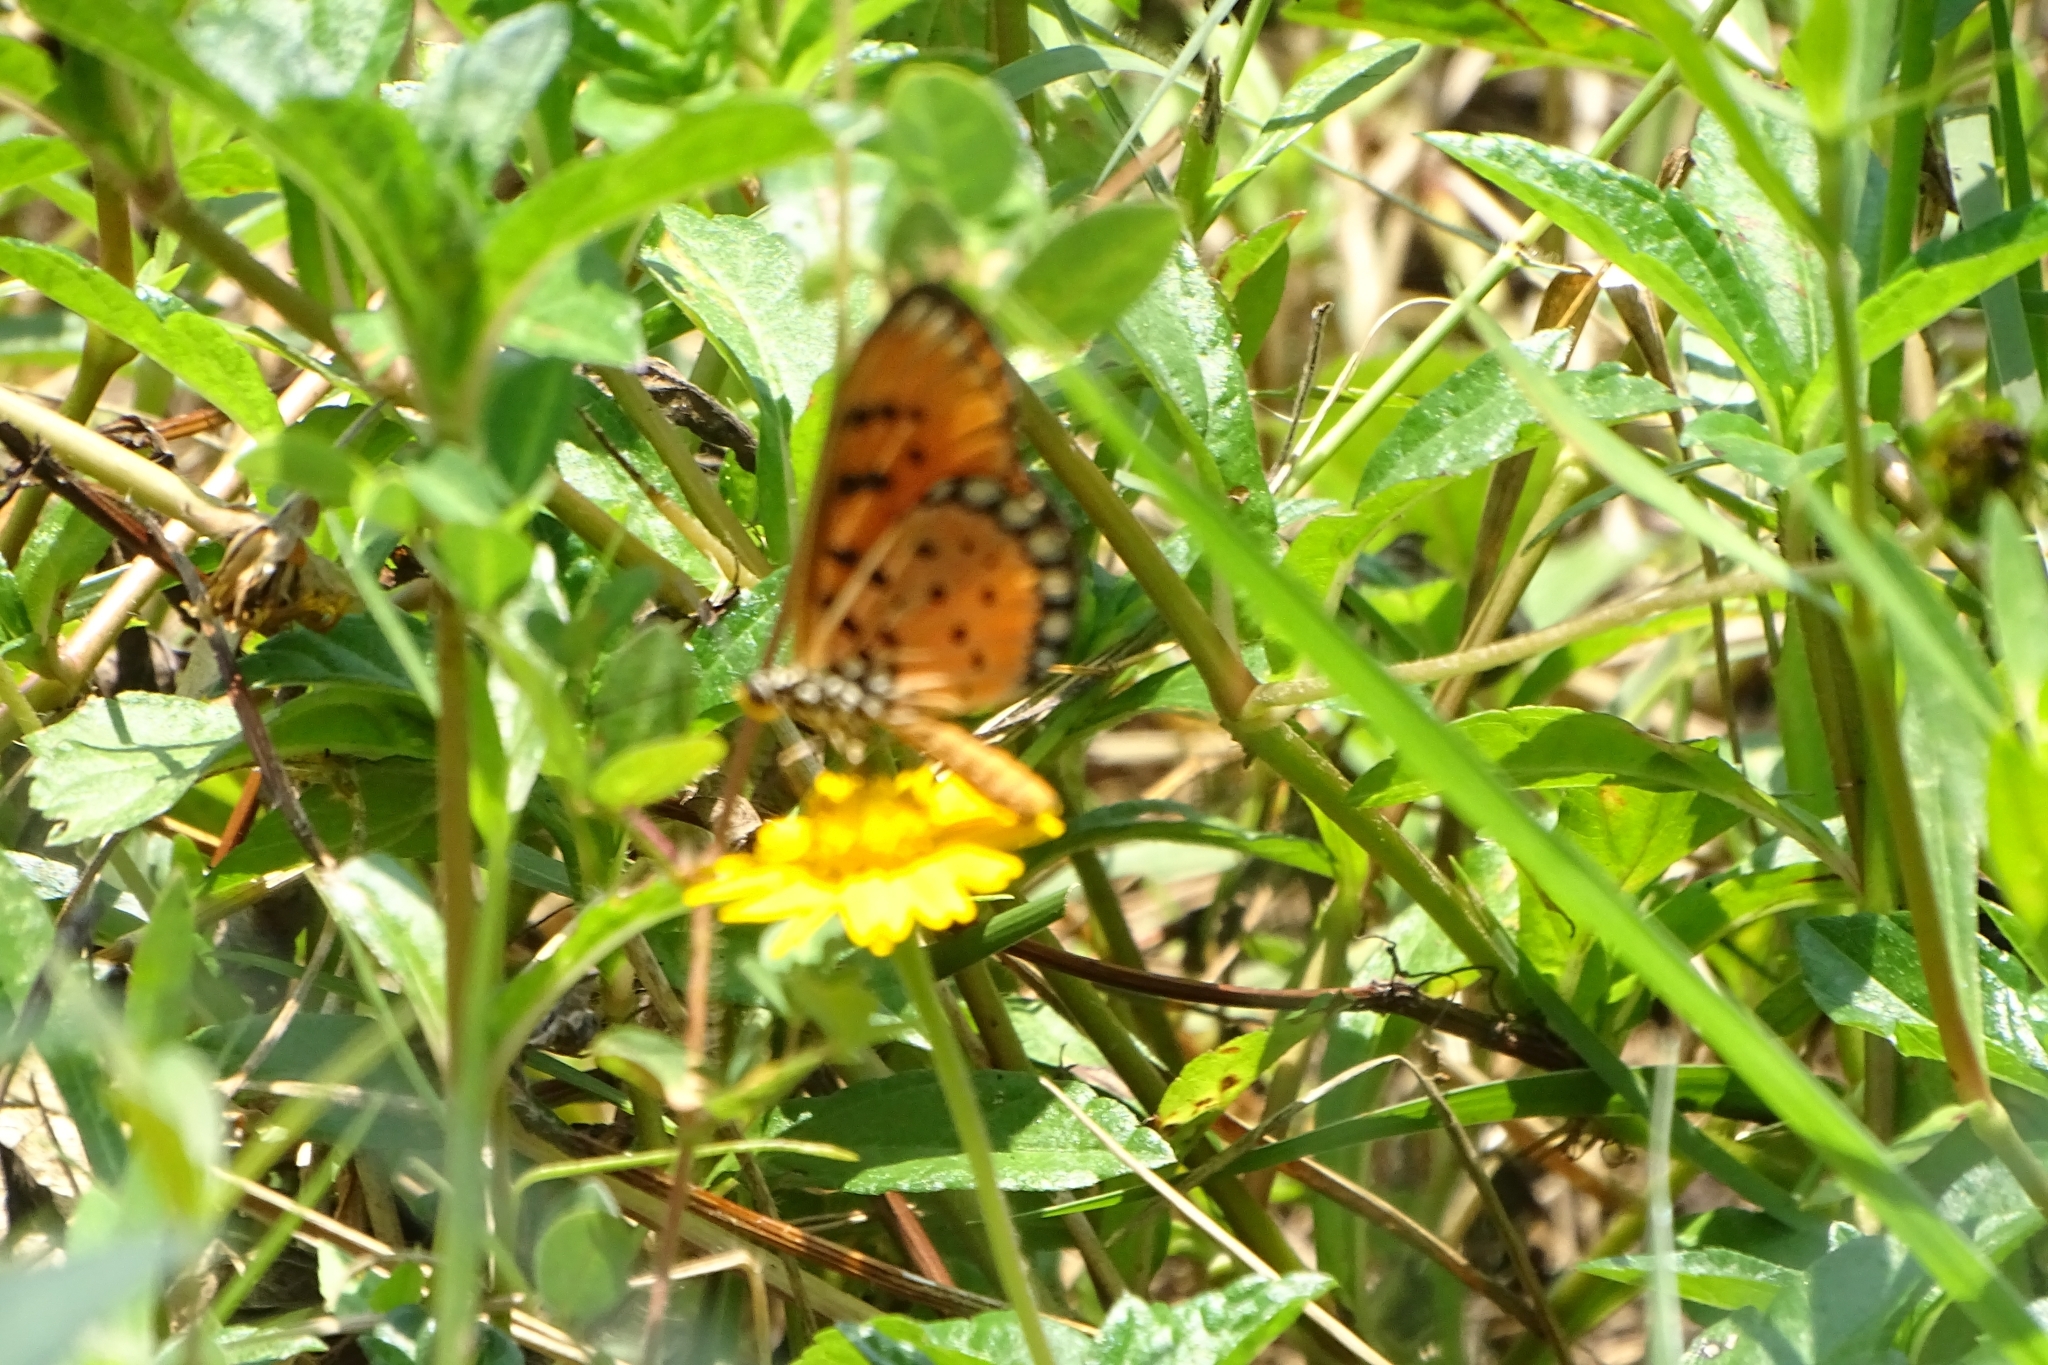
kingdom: Animalia
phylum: Arthropoda
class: Insecta
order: Lepidoptera
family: Nymphalidae
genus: Acraea
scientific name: Acraea terpsicore
